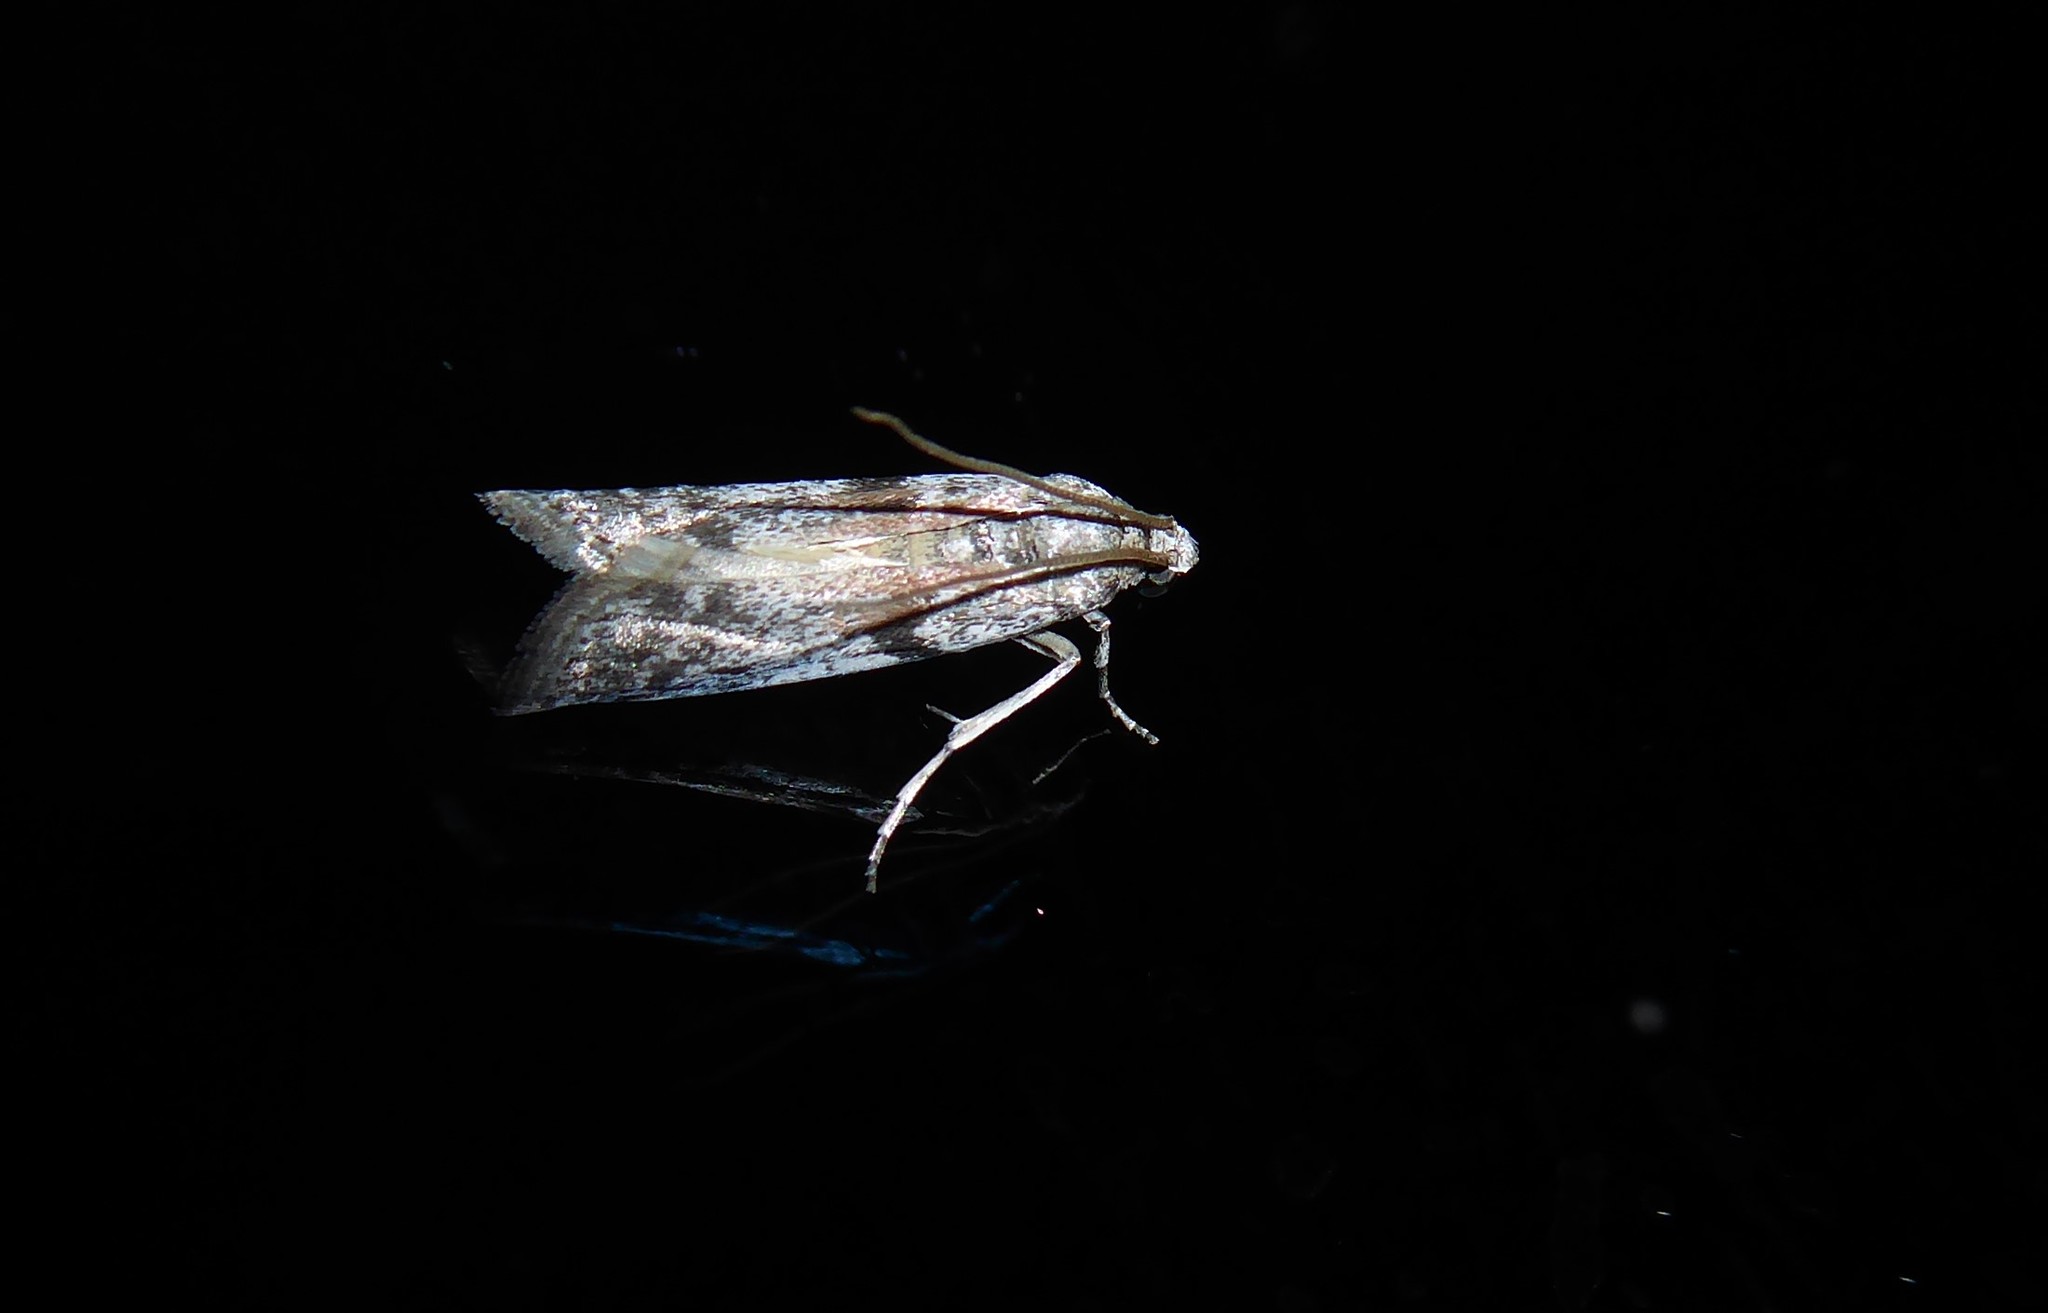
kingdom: Animalia
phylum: Arthropoda
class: Insecta
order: Lepidoptera
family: Pyralidae
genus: Patagoniodes
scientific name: Patagoniodes farinaria
